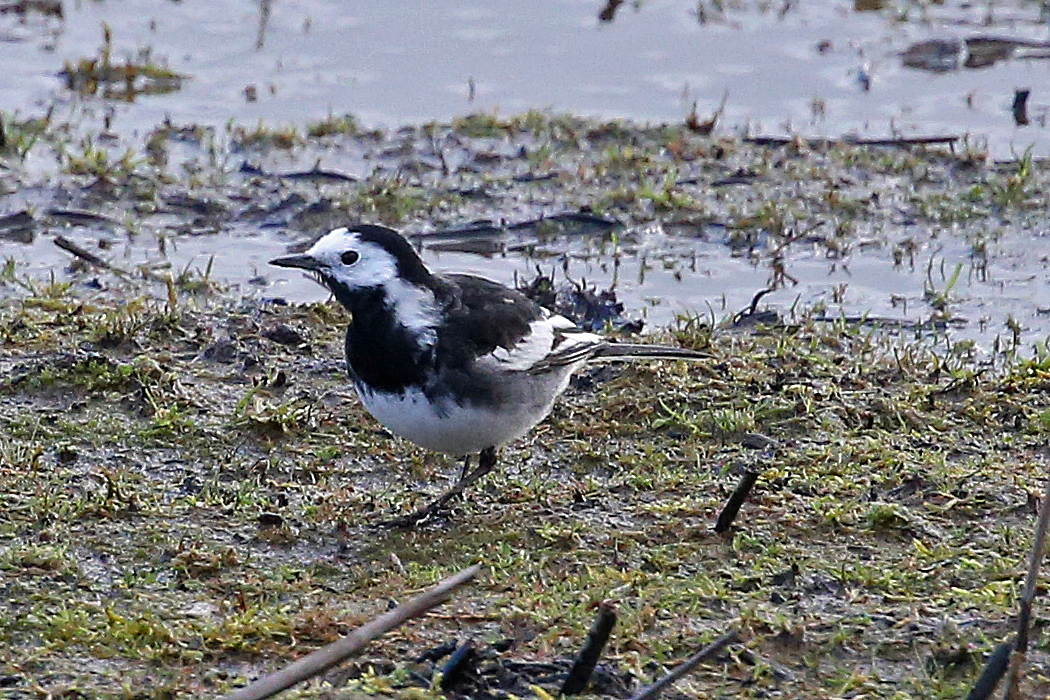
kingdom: Animalia
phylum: Chordata
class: Aves
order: Passeriformes
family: Motacillidae
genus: Motacilla
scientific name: Motacilla alba
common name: White wagtail
